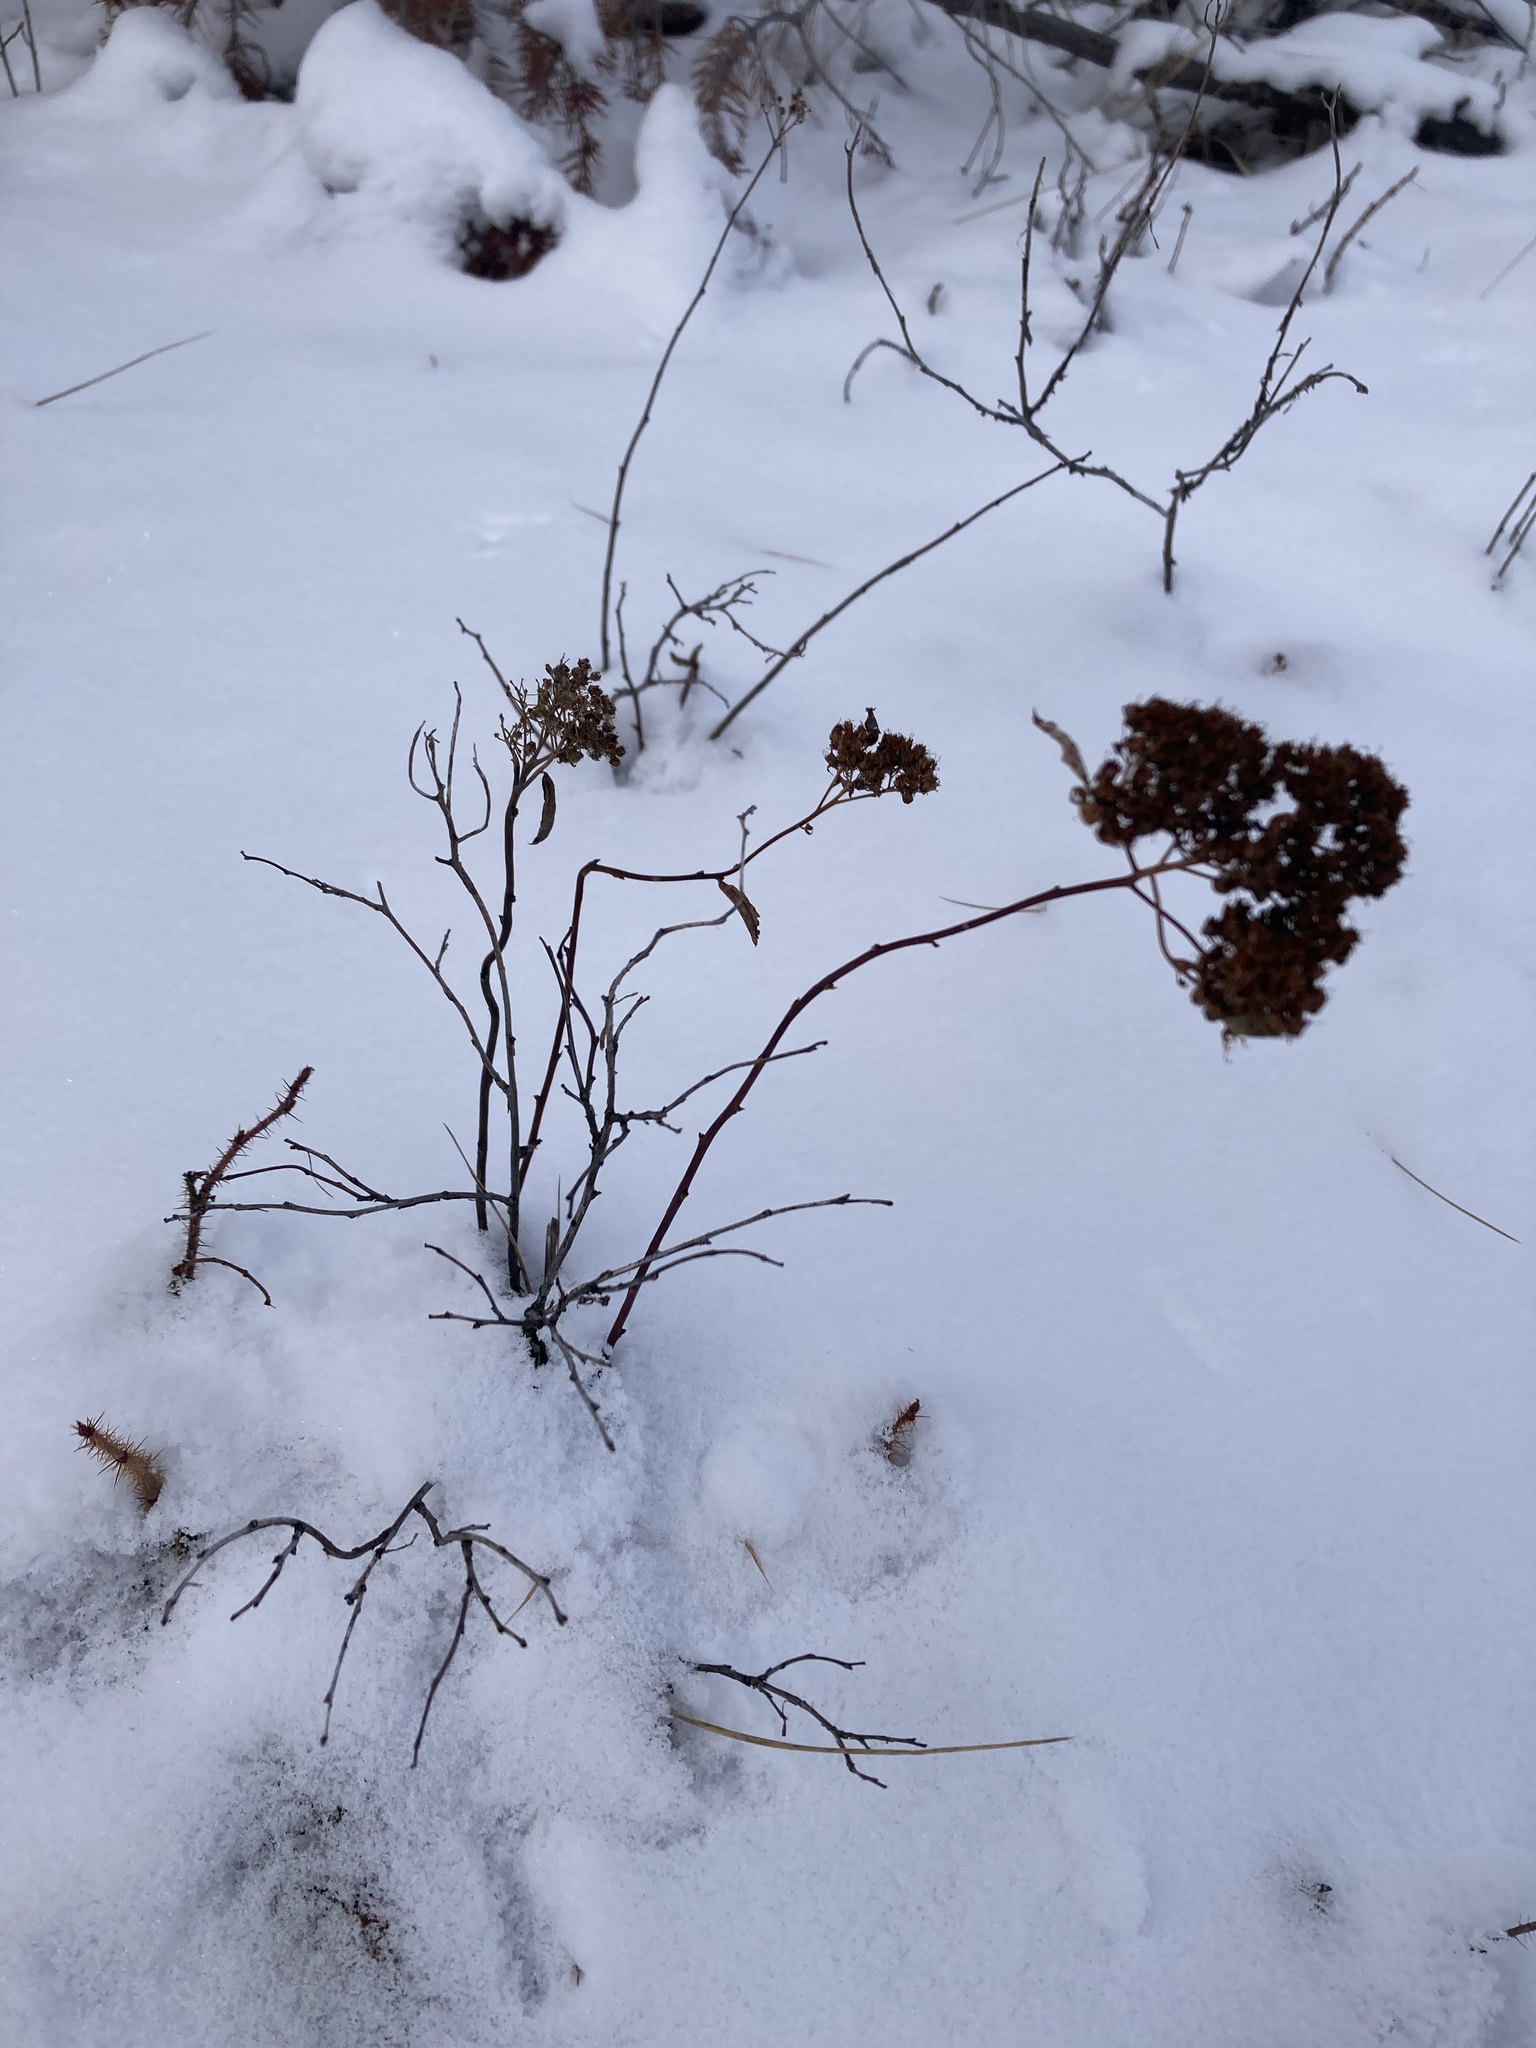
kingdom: Plantae
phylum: Tracheophyta
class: Magnoliopsida
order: Rosales
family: Rosaceae
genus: Spiraea
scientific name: Spiraea lucida
